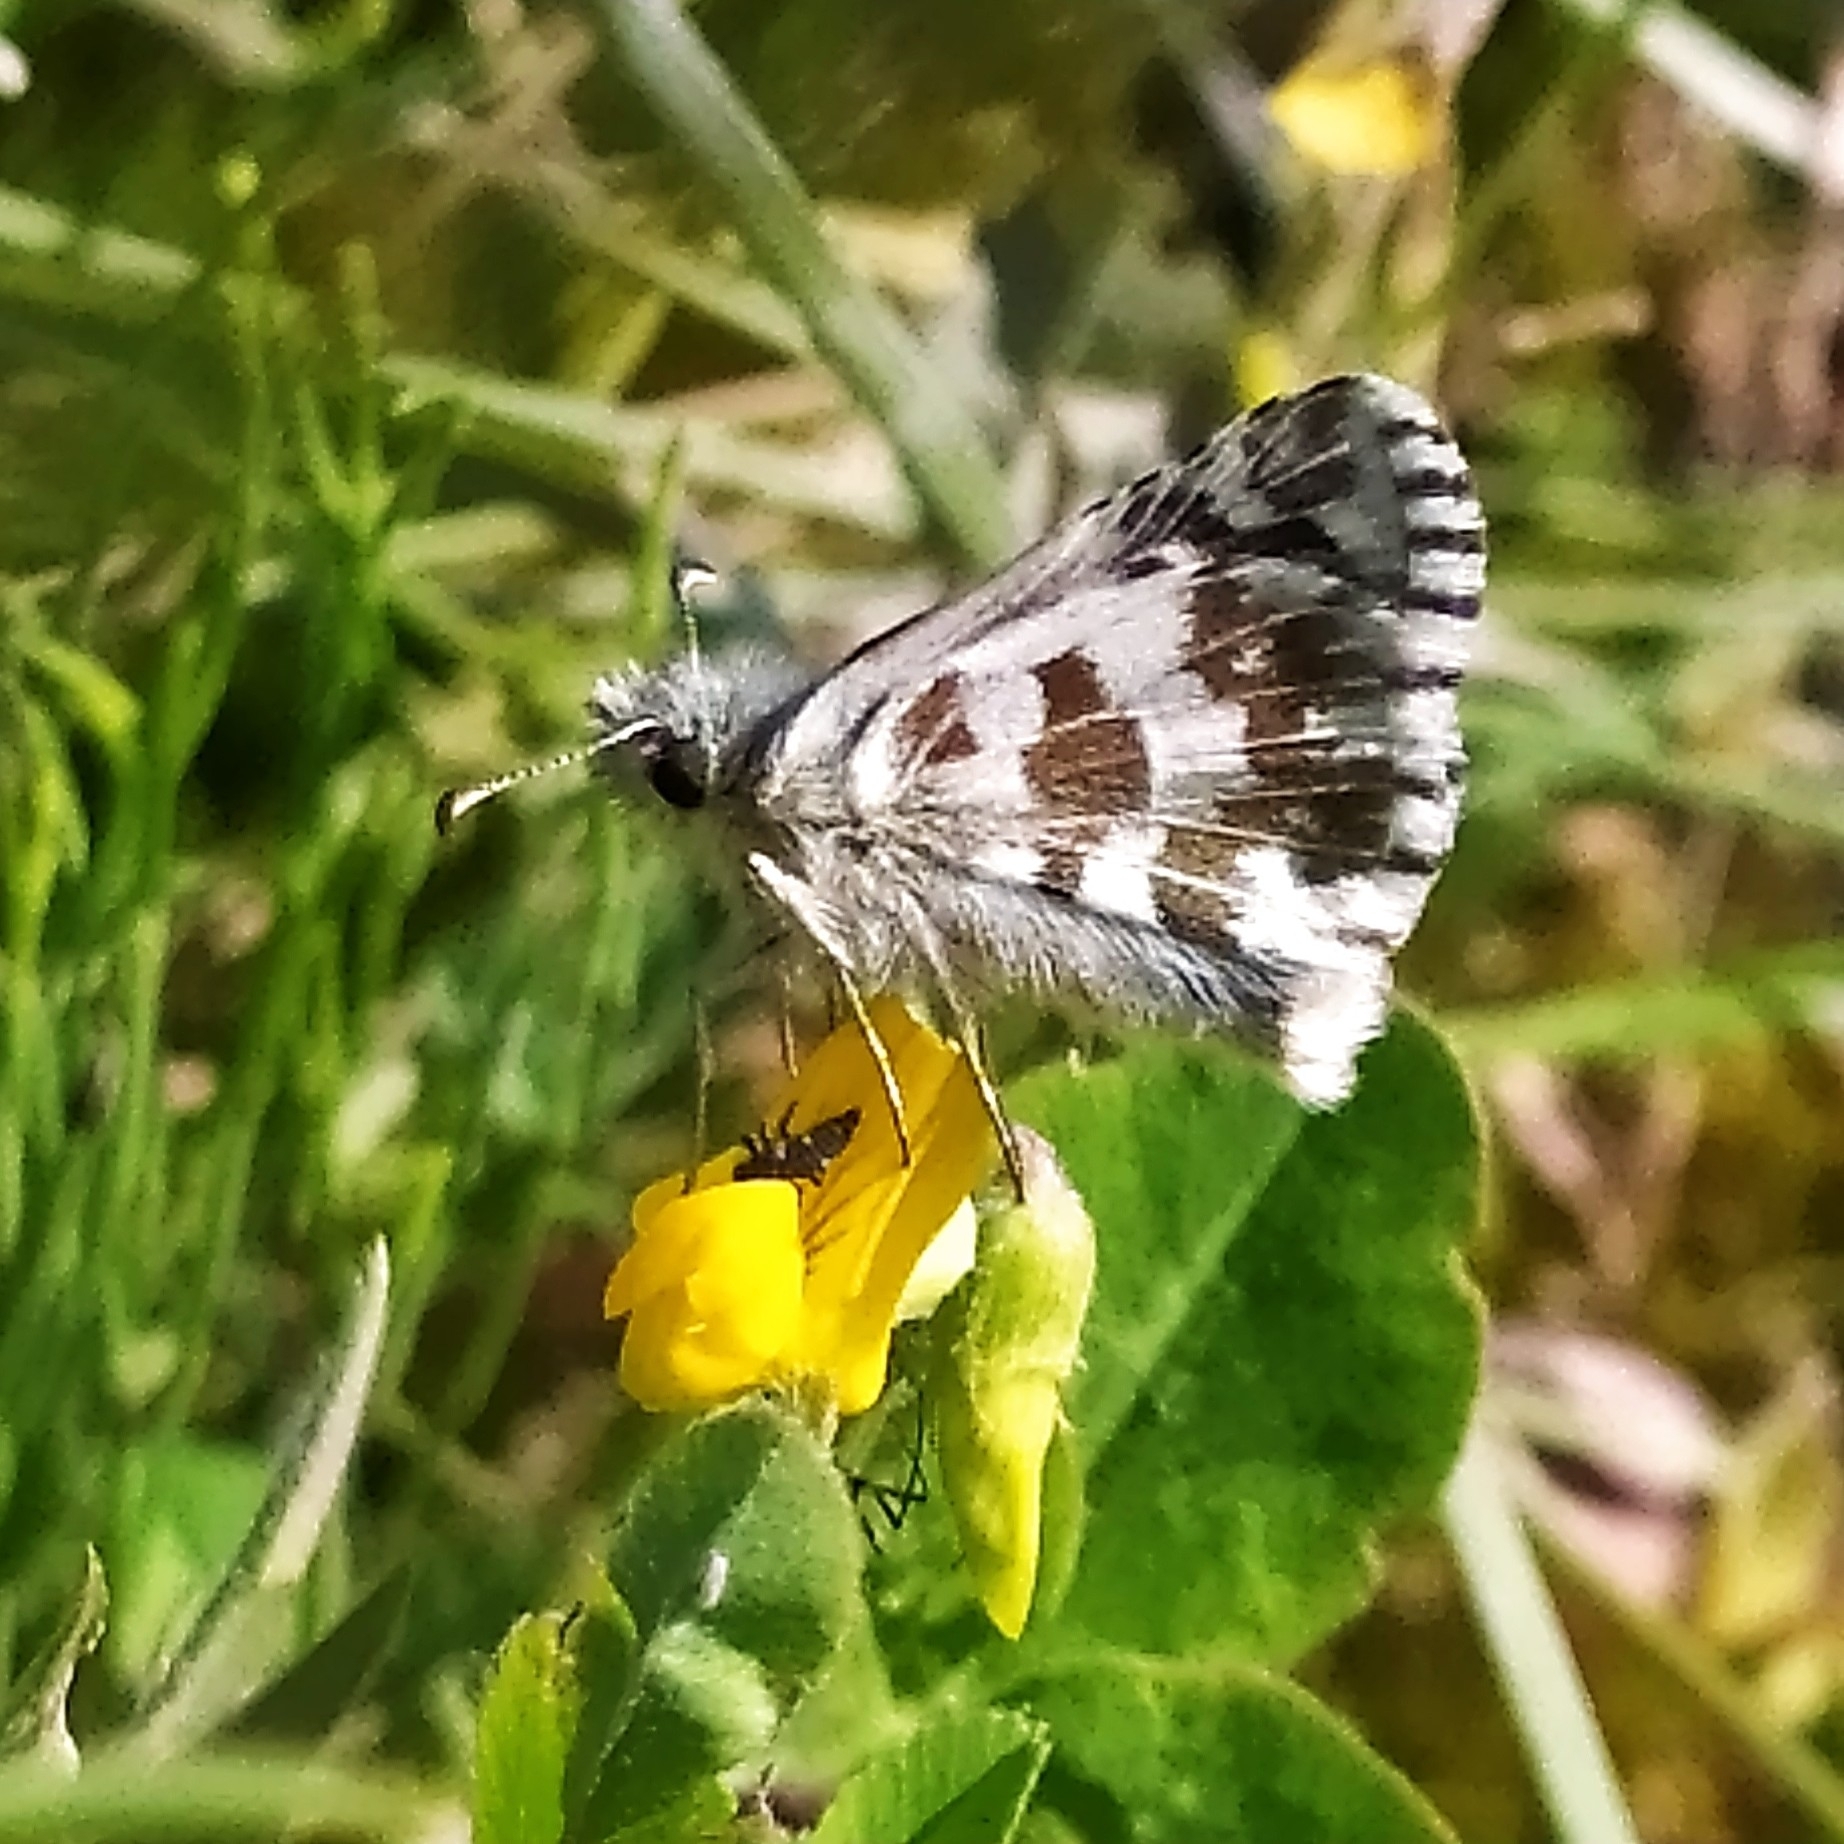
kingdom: Animalia
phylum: Arthropoda
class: Insecta
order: Lepidoptera
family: Hesperiidae
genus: Pyrgus
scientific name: Pyrgus alveus
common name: Large grizzled skipper
